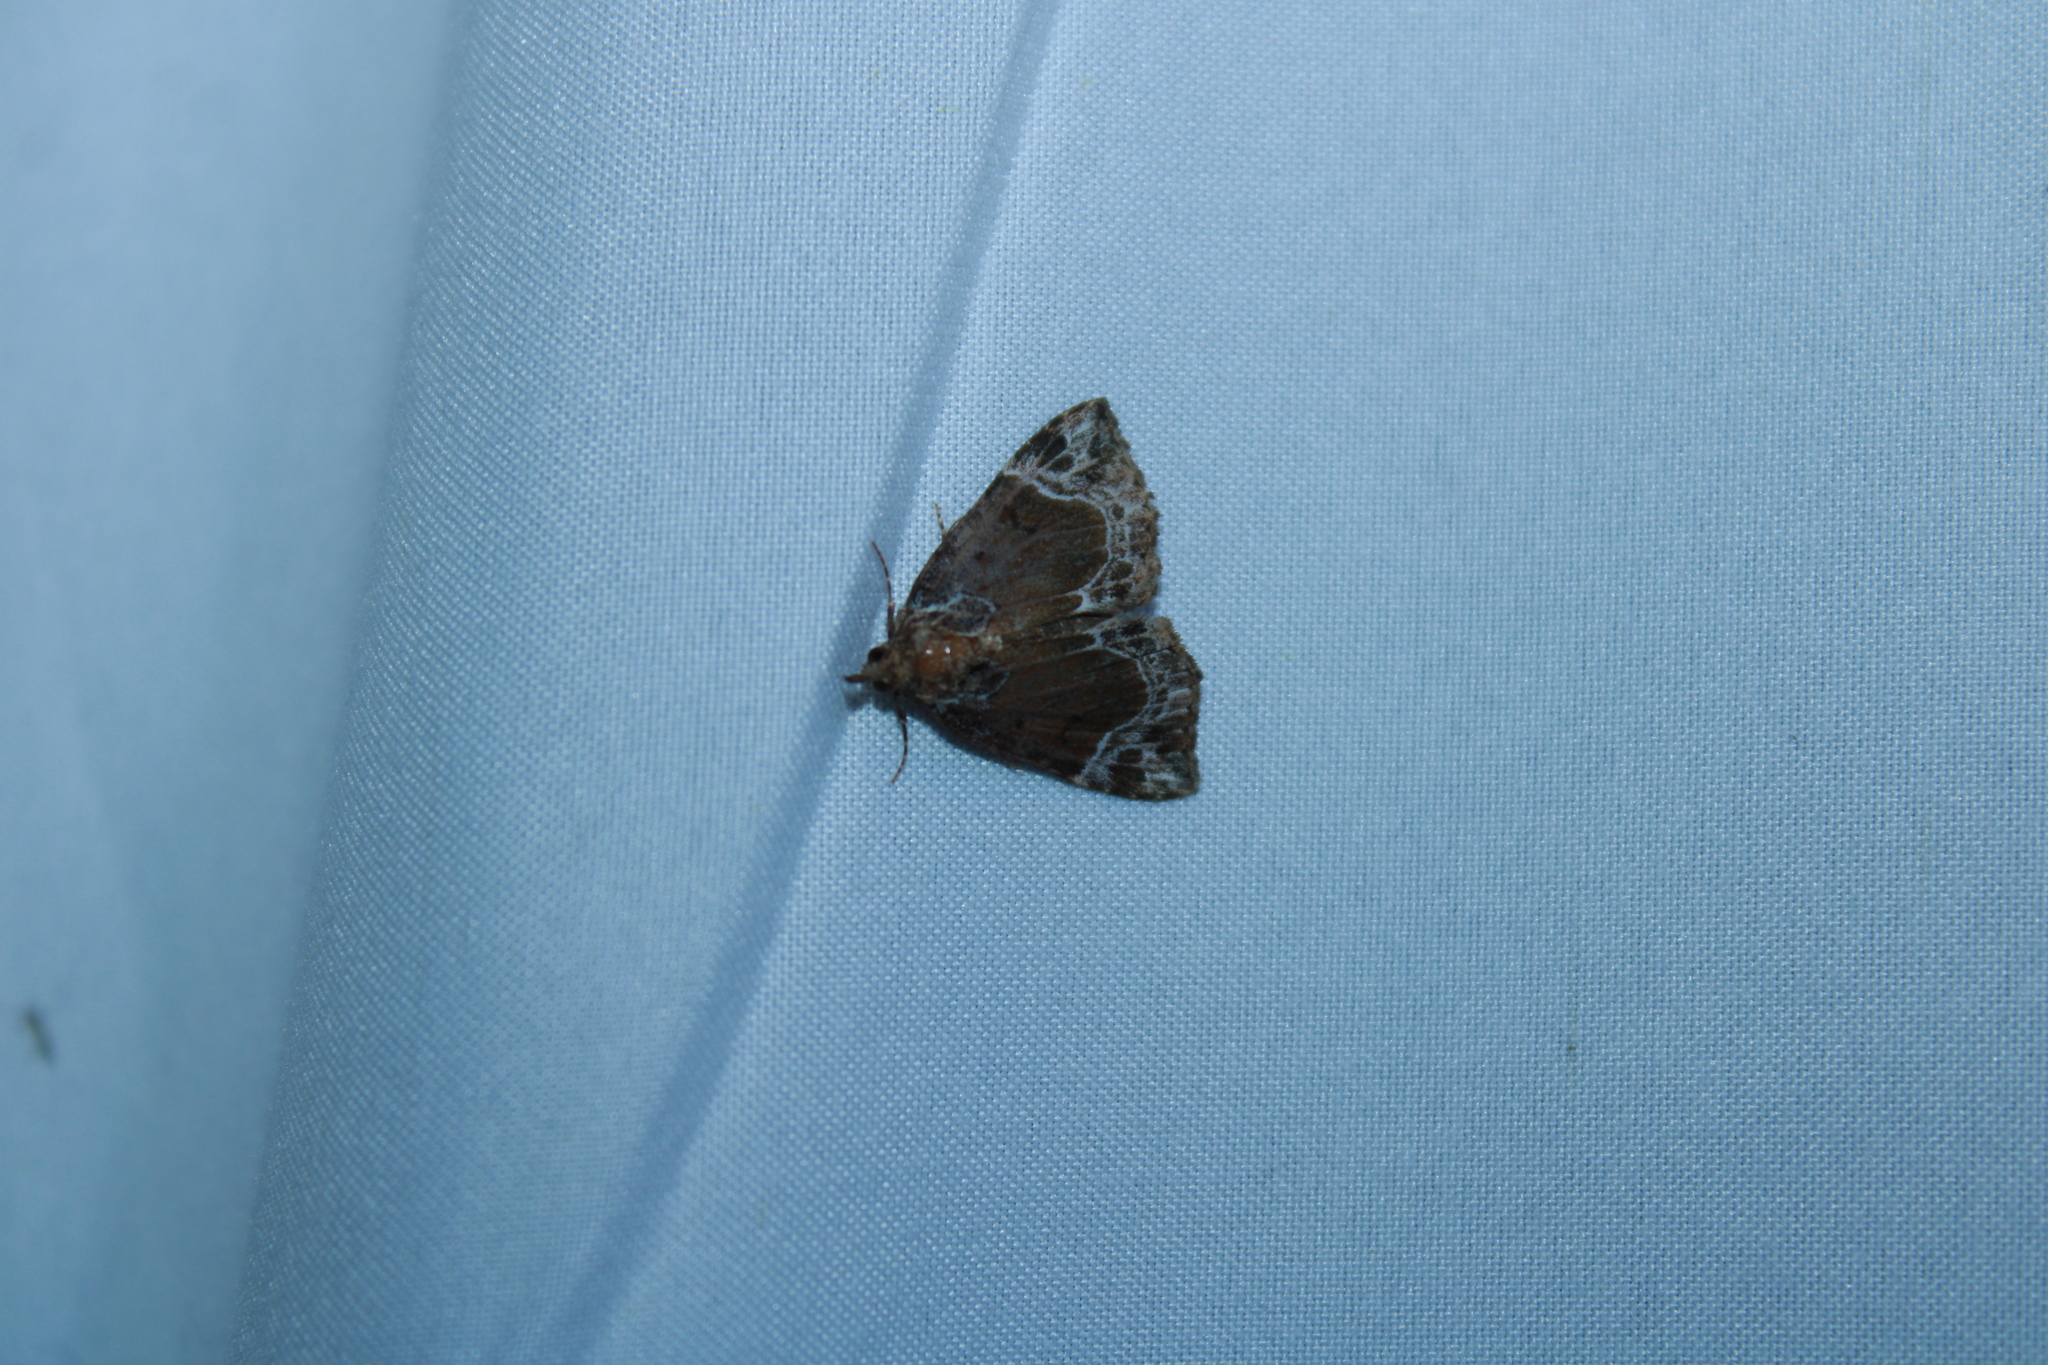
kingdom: Animalia
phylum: Arthropoda
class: Insecta
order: Lepidoptera
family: Erebidae
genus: Hypena
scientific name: Hypena abalienalis
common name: White-lined snout
